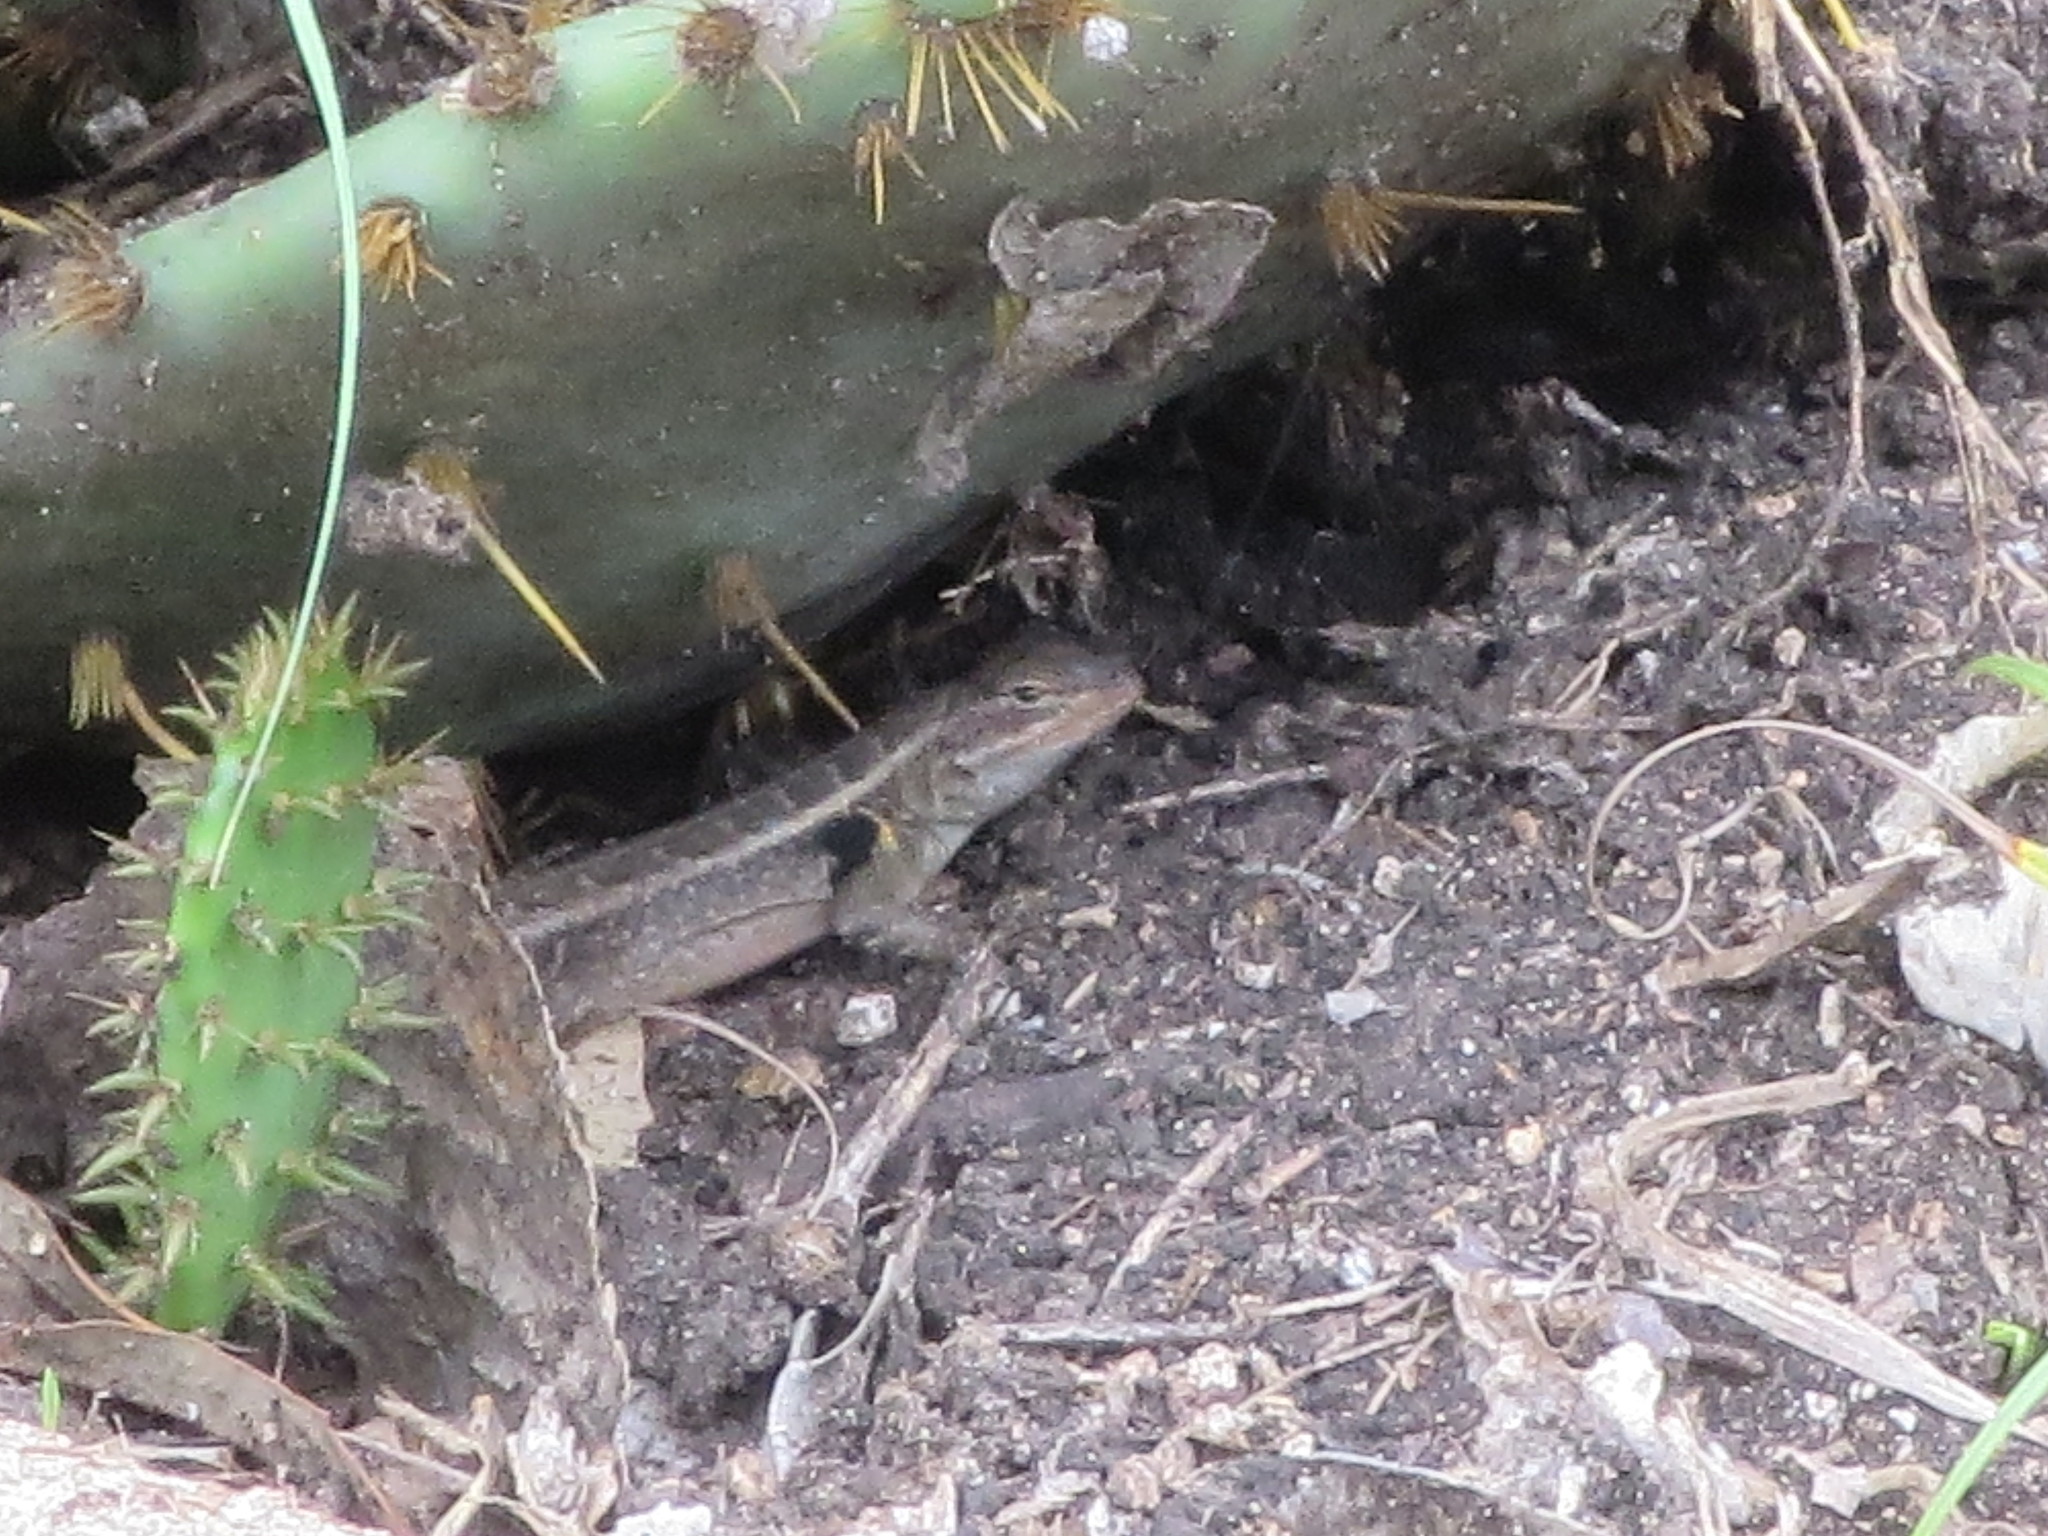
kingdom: Animalia
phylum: Chordata
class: Squamata
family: Phrynosomatidae
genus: Sceloporus
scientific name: Sceloporus variabilis
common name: Rosebelly lizard
